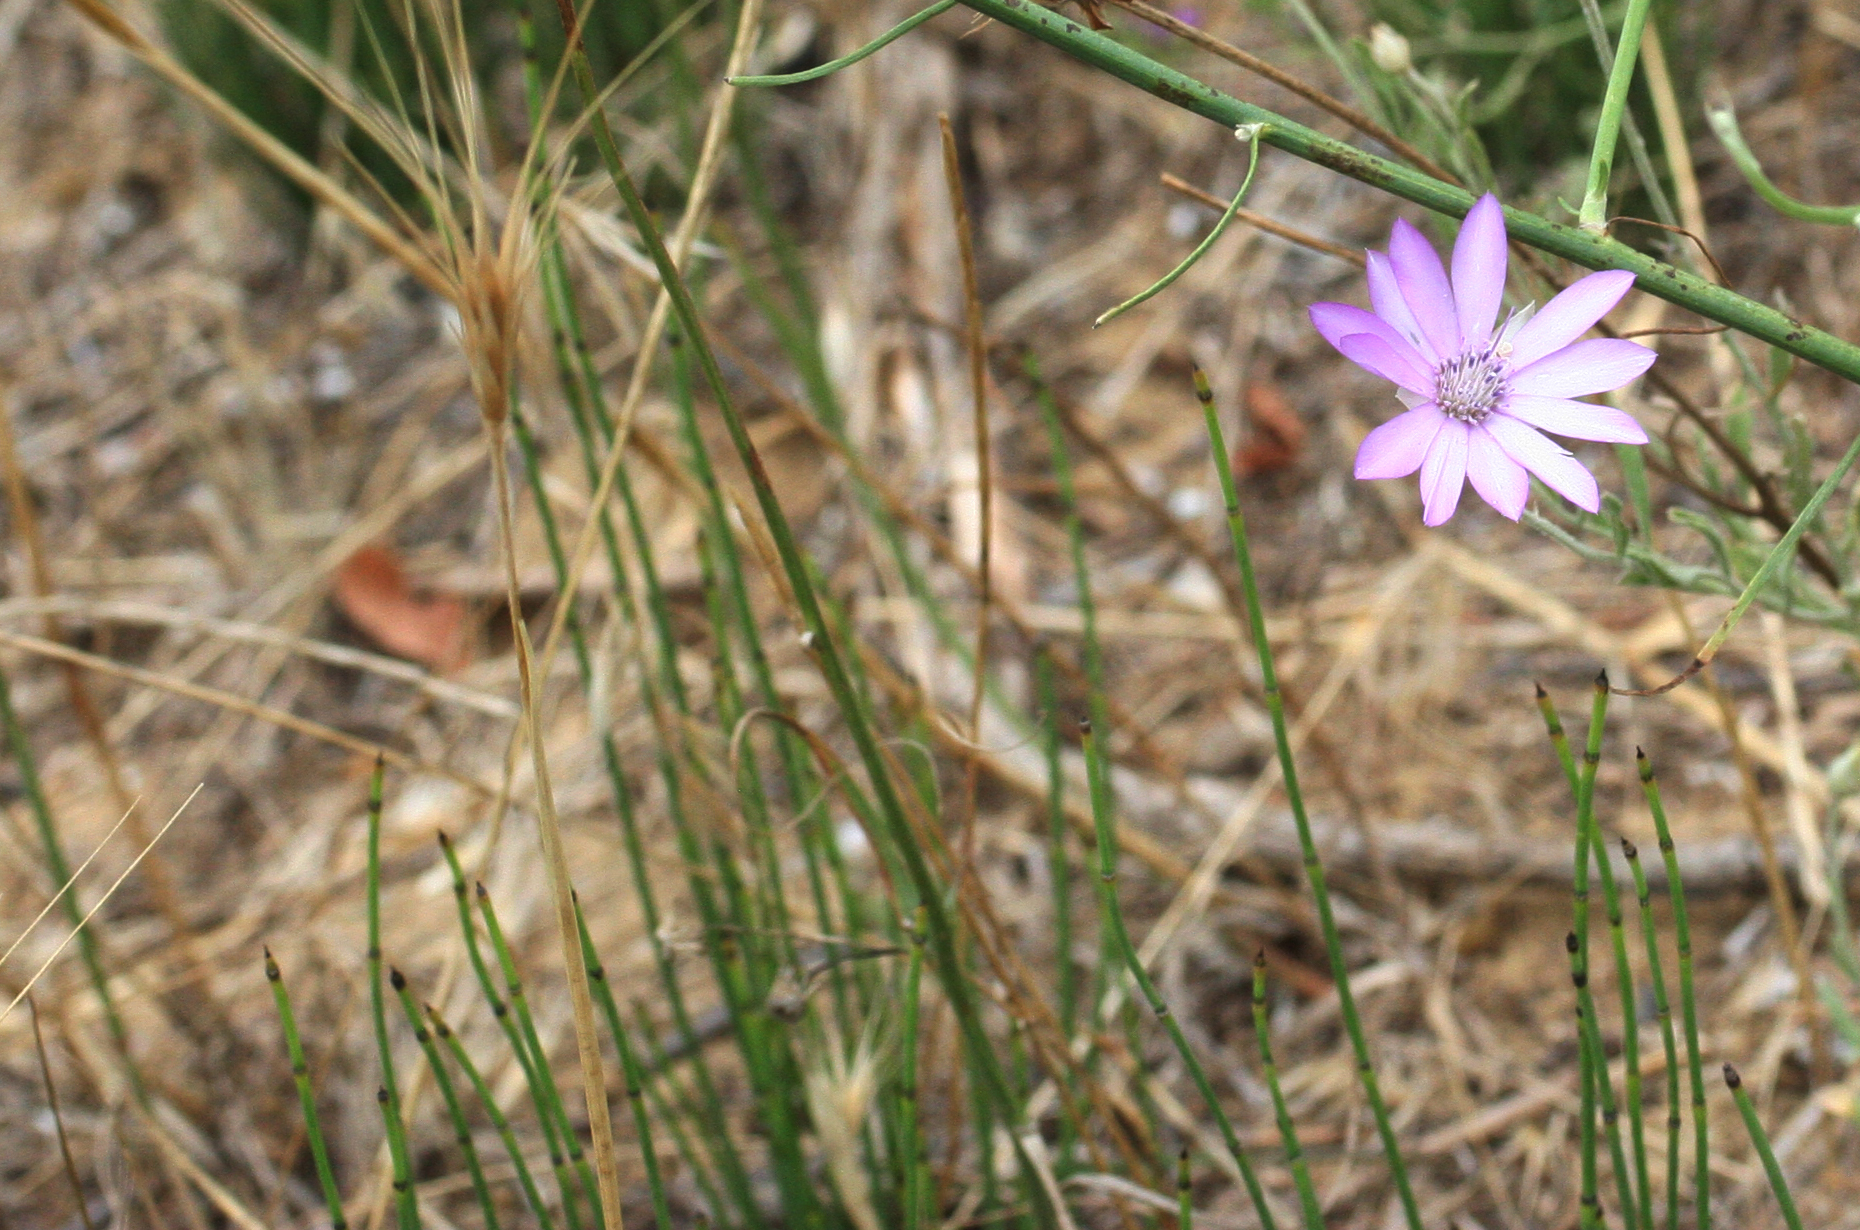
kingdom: Plantae
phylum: Tracheophyta
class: Polypodiopsida
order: Equisetales
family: Equisetaceae
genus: Equisetum
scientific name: Equisetum ramosissimum
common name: Branched horsetail
